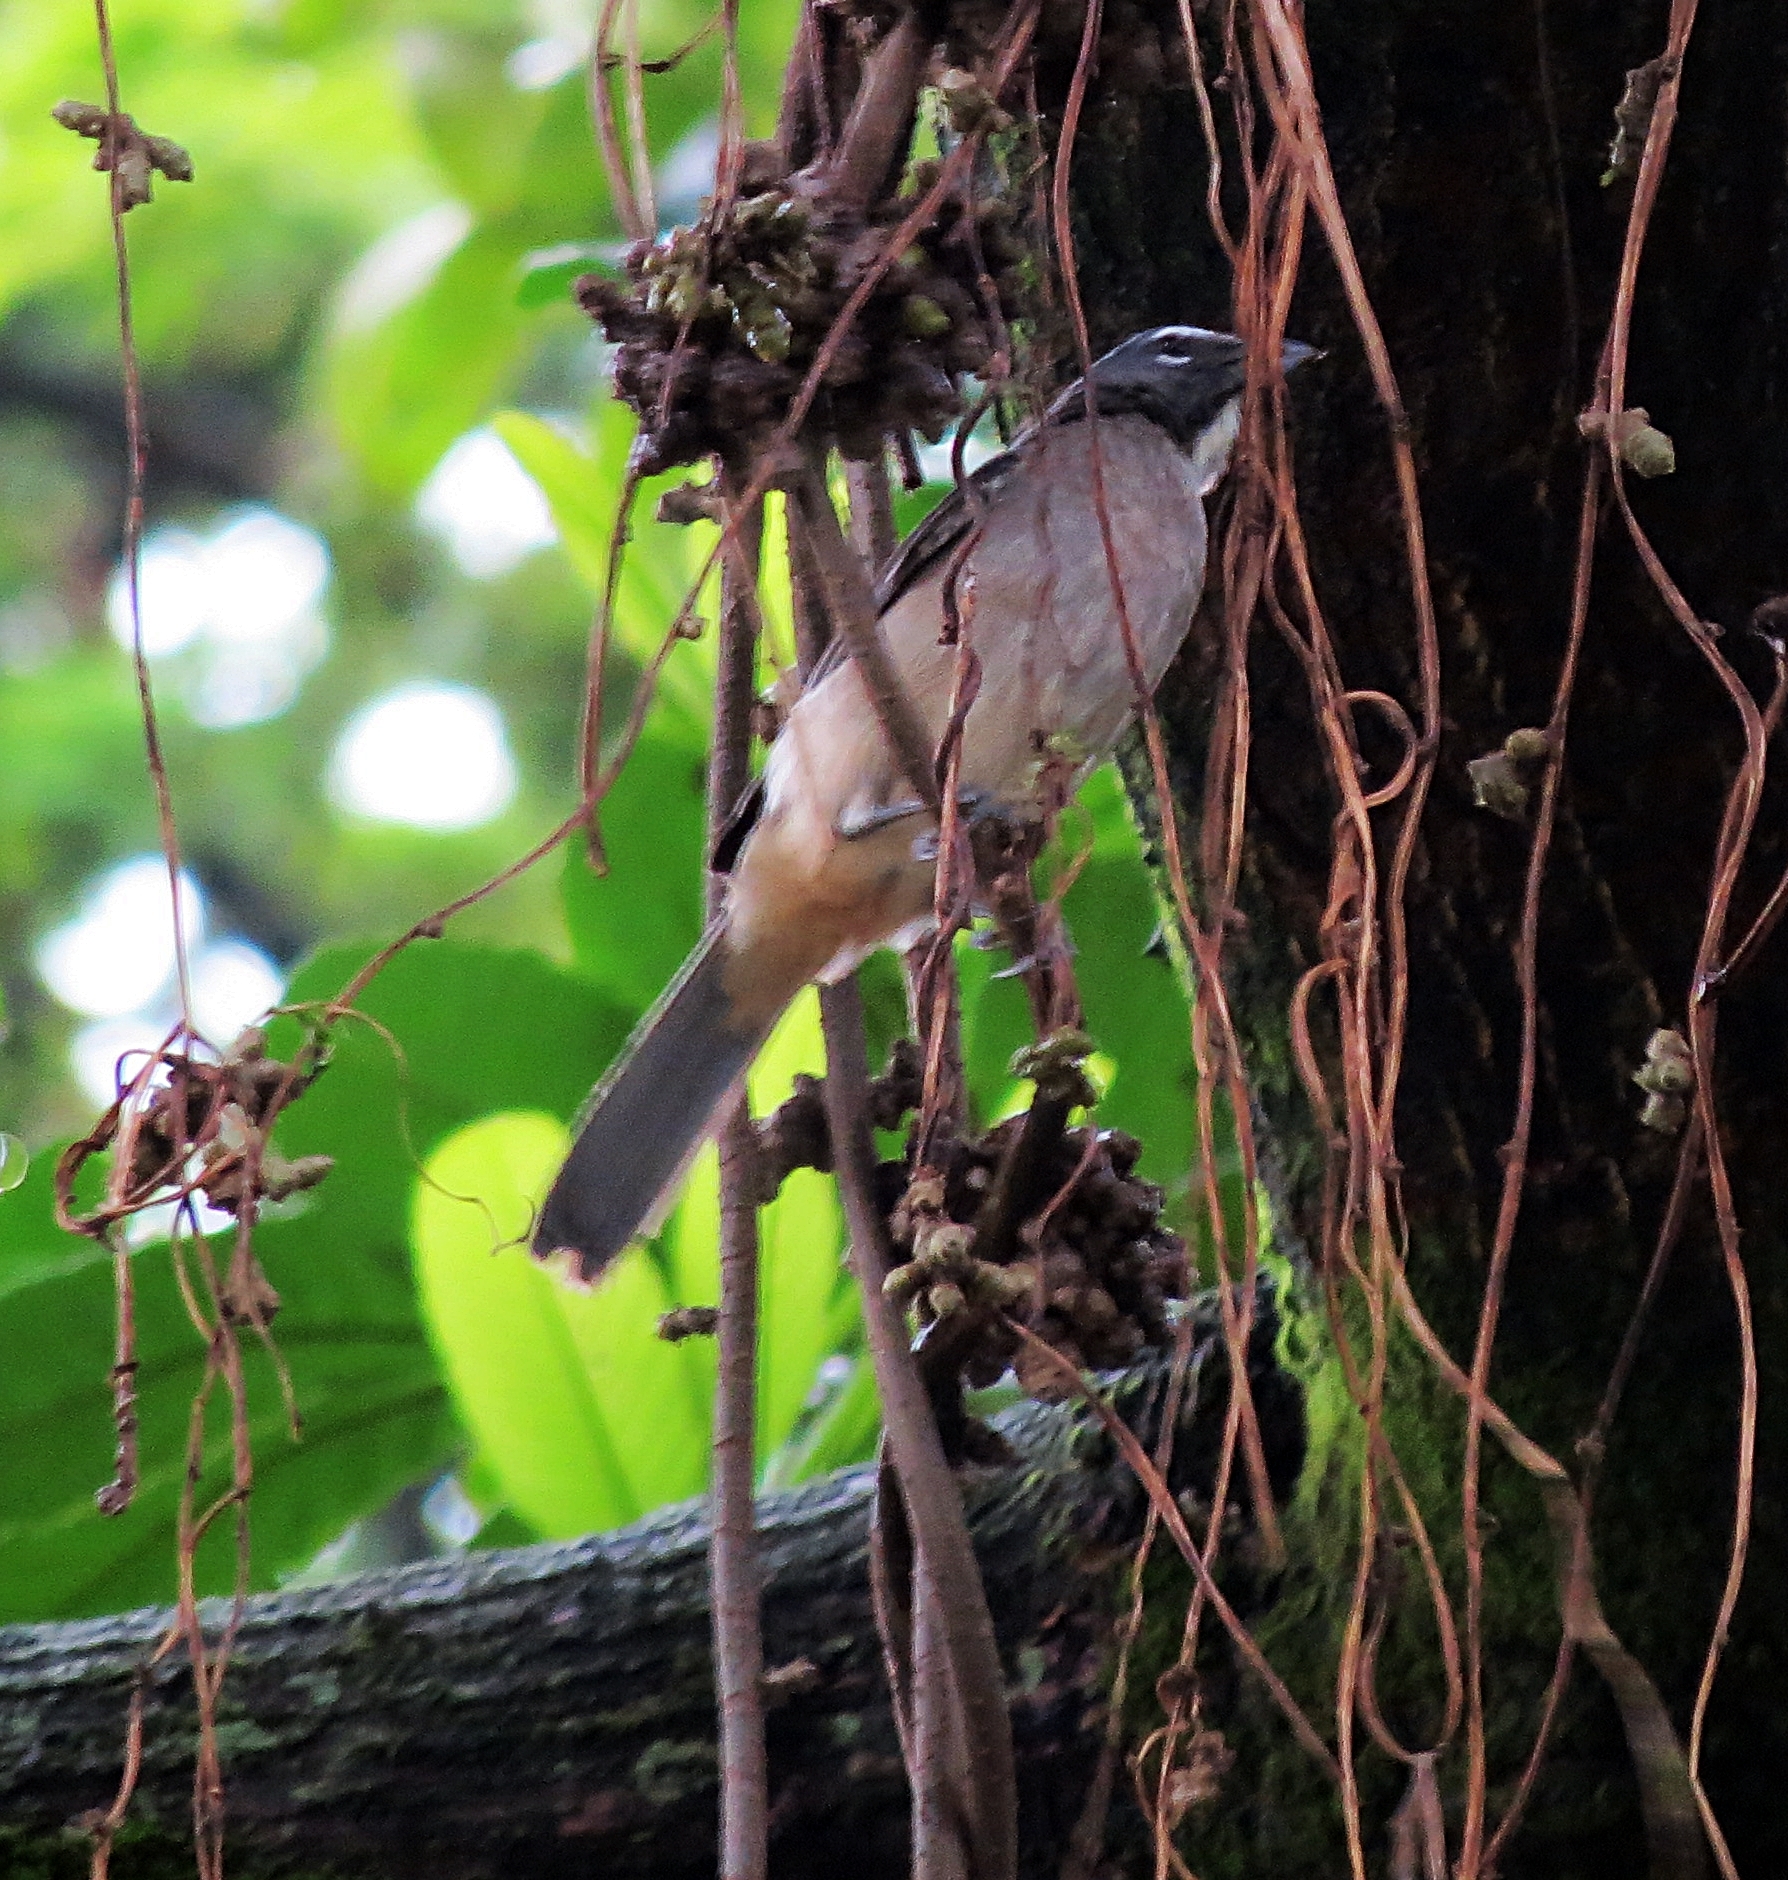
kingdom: Animalia
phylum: Chordata
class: Aves
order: Passeriformes
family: Thraupidae
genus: Saltator
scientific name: Saltator olivascens
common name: Caribbean grey saltator
